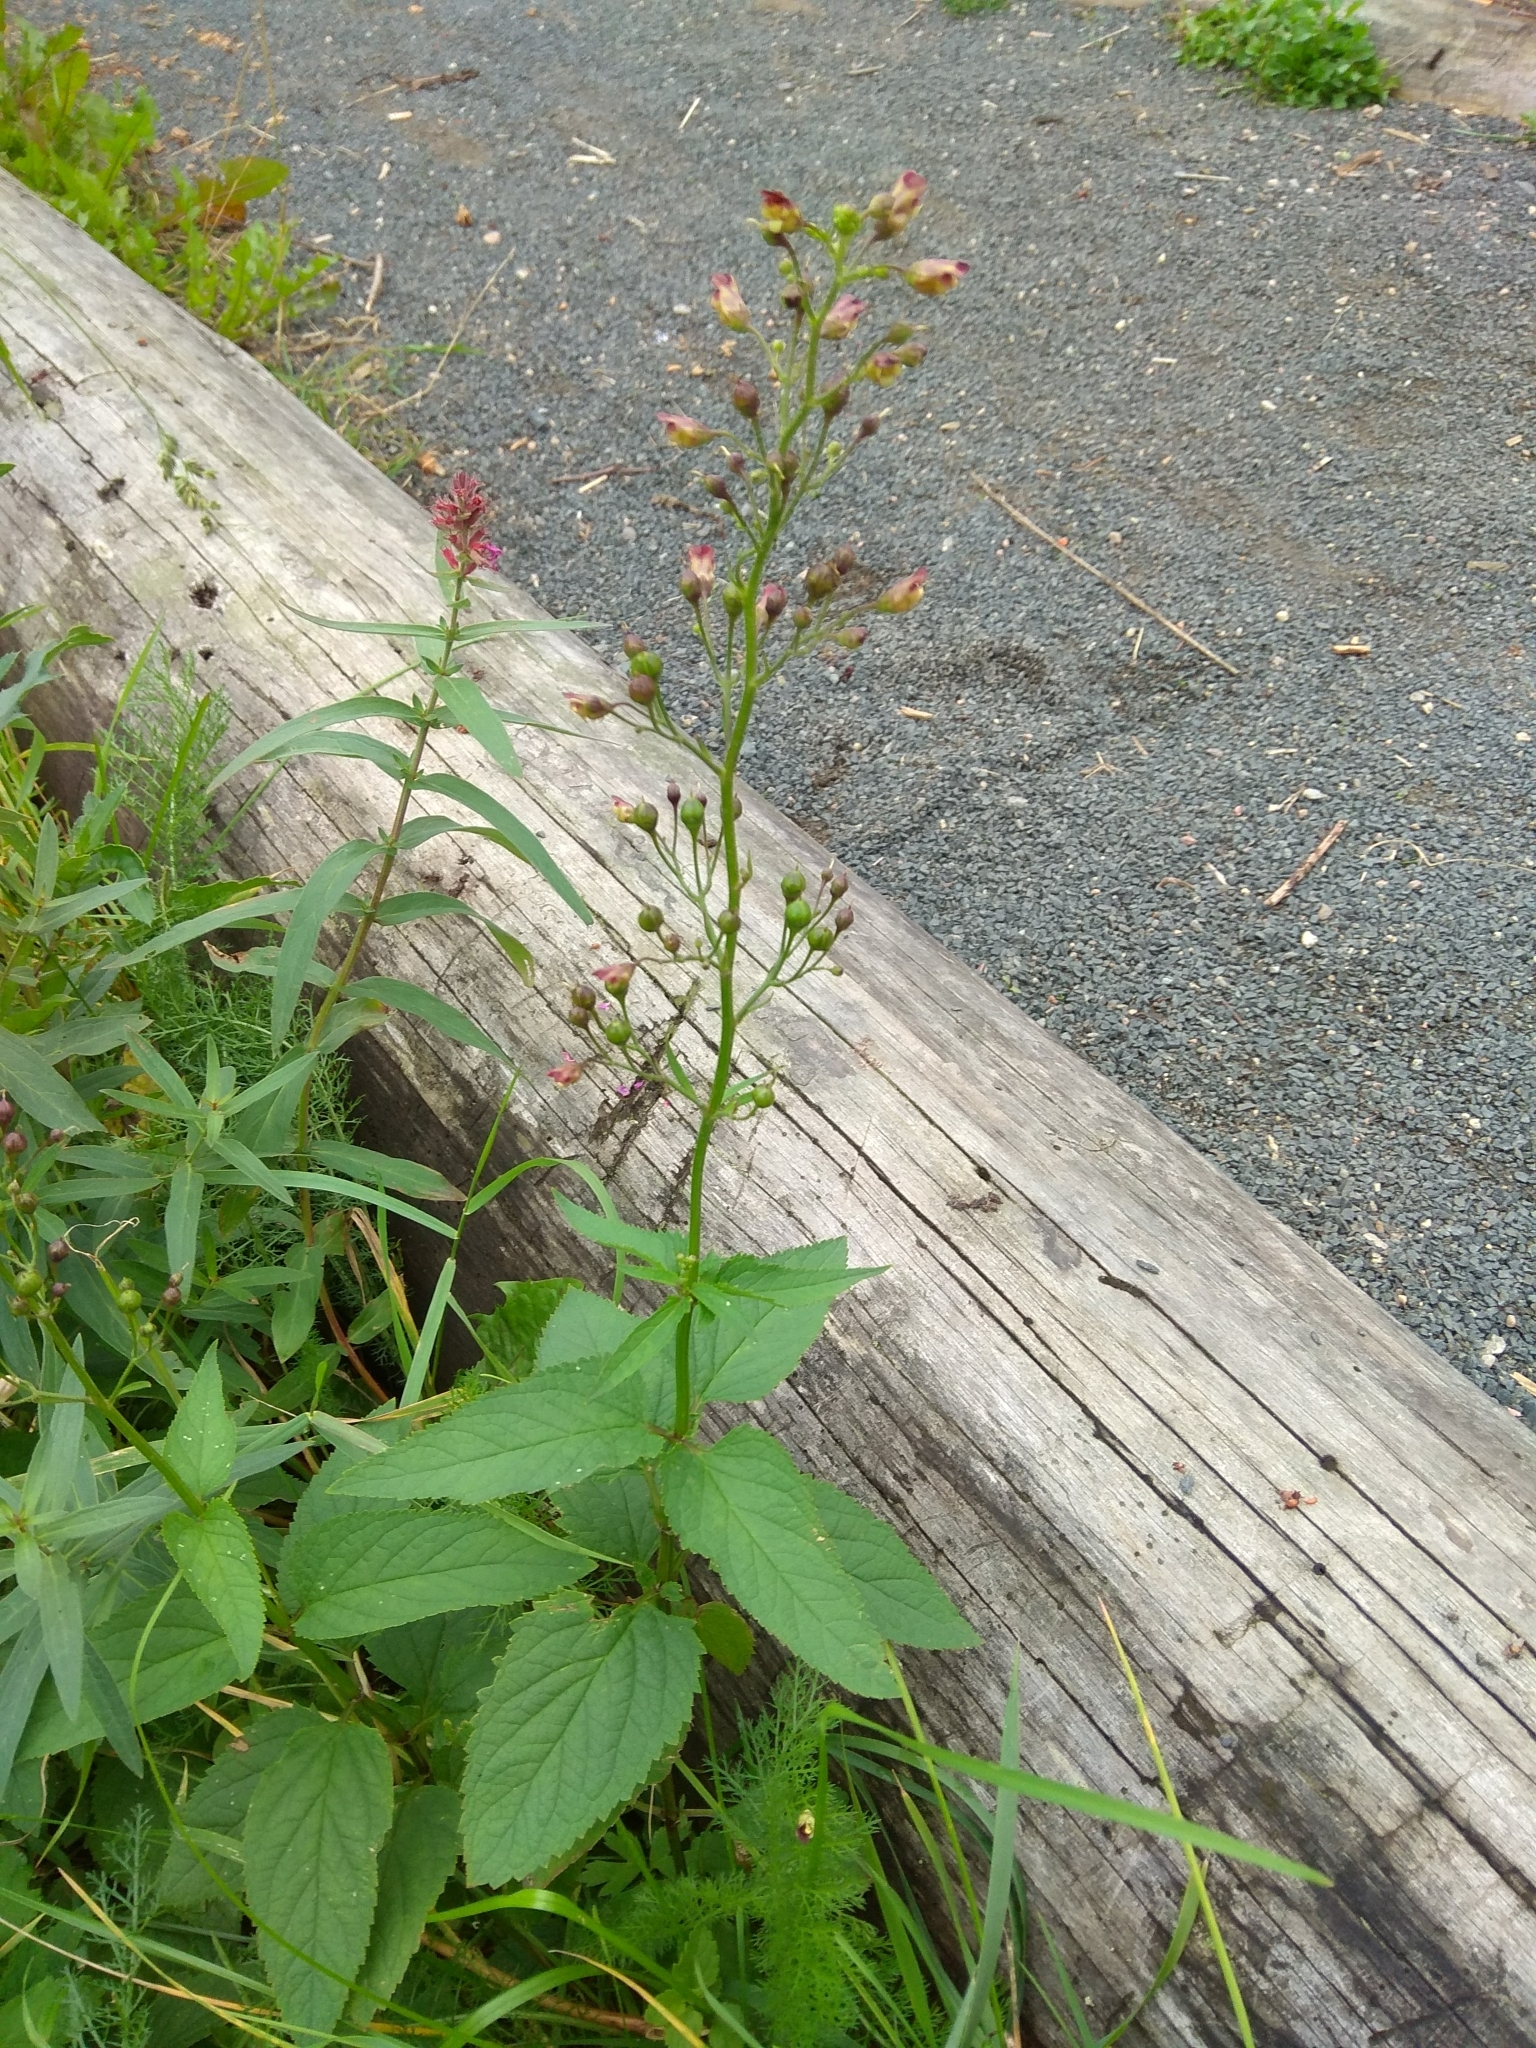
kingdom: Plantae
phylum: Tracheophyta
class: Magnoliopsida
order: Lamiales
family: Scrophulariaceae
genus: Scrophularia
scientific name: Scrophularia nodosa
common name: Common figwort
